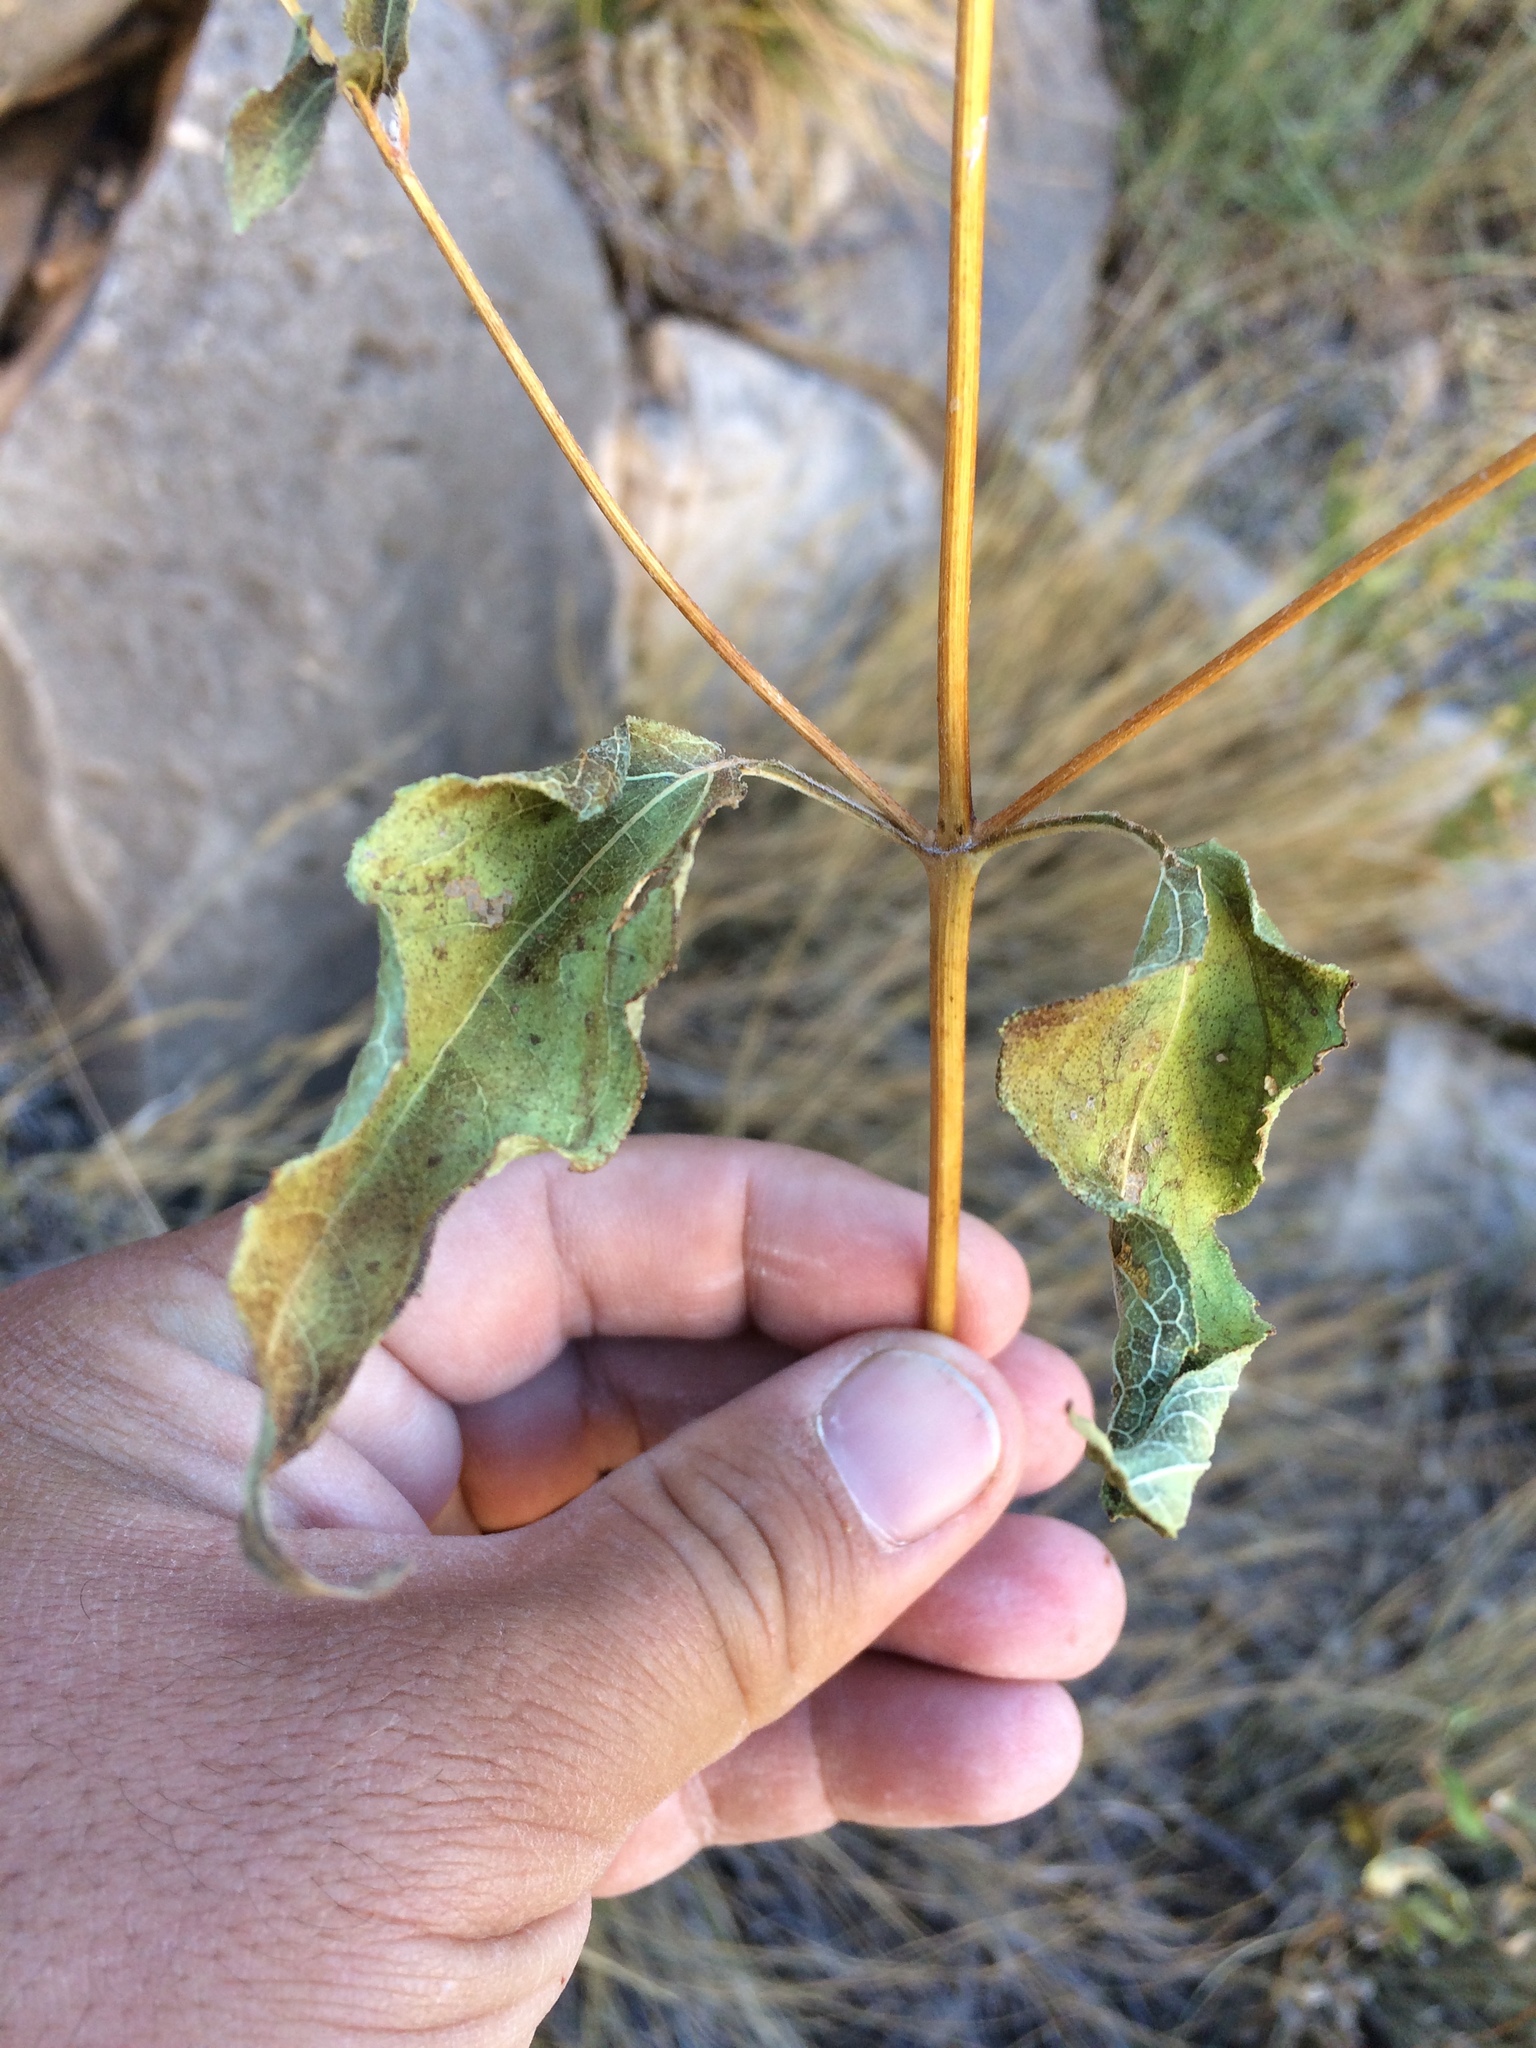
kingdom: Plantae
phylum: Tracheophyta
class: Magnoliopsida
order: Asterales
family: Asteraceae
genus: Viguiera
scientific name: Viguiera dentata
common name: Toothleaf
